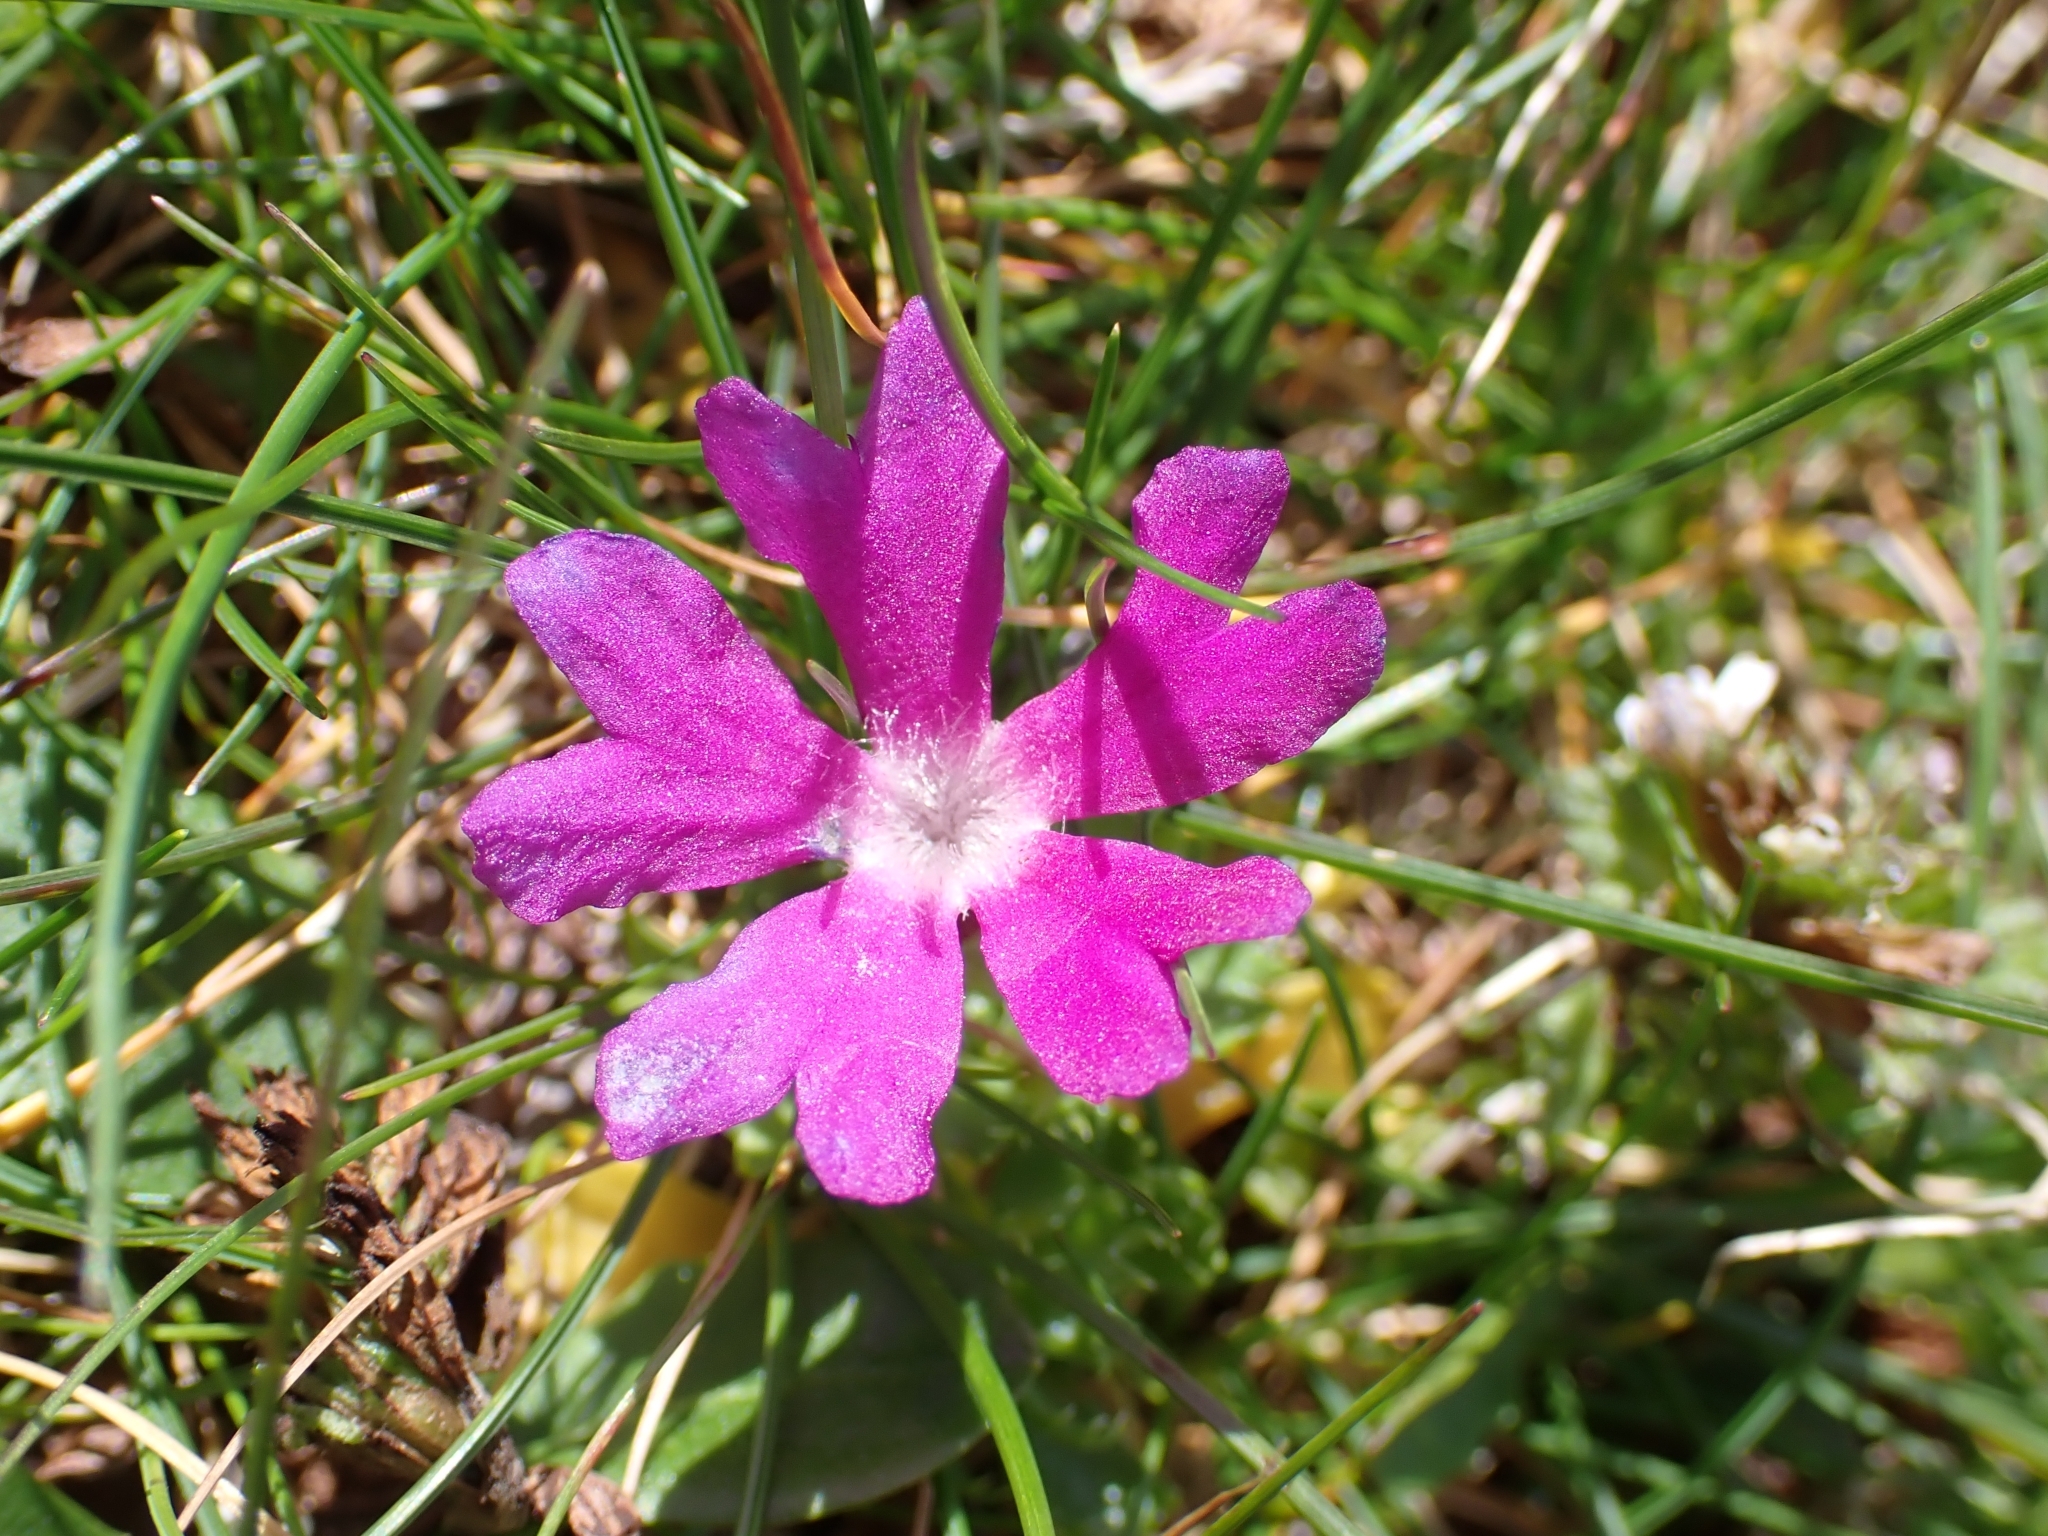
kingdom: Plantae
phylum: Tracheophyta
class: Magnoliopsida
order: Ericales
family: Primulaceae
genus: Primula
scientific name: Primula minima
